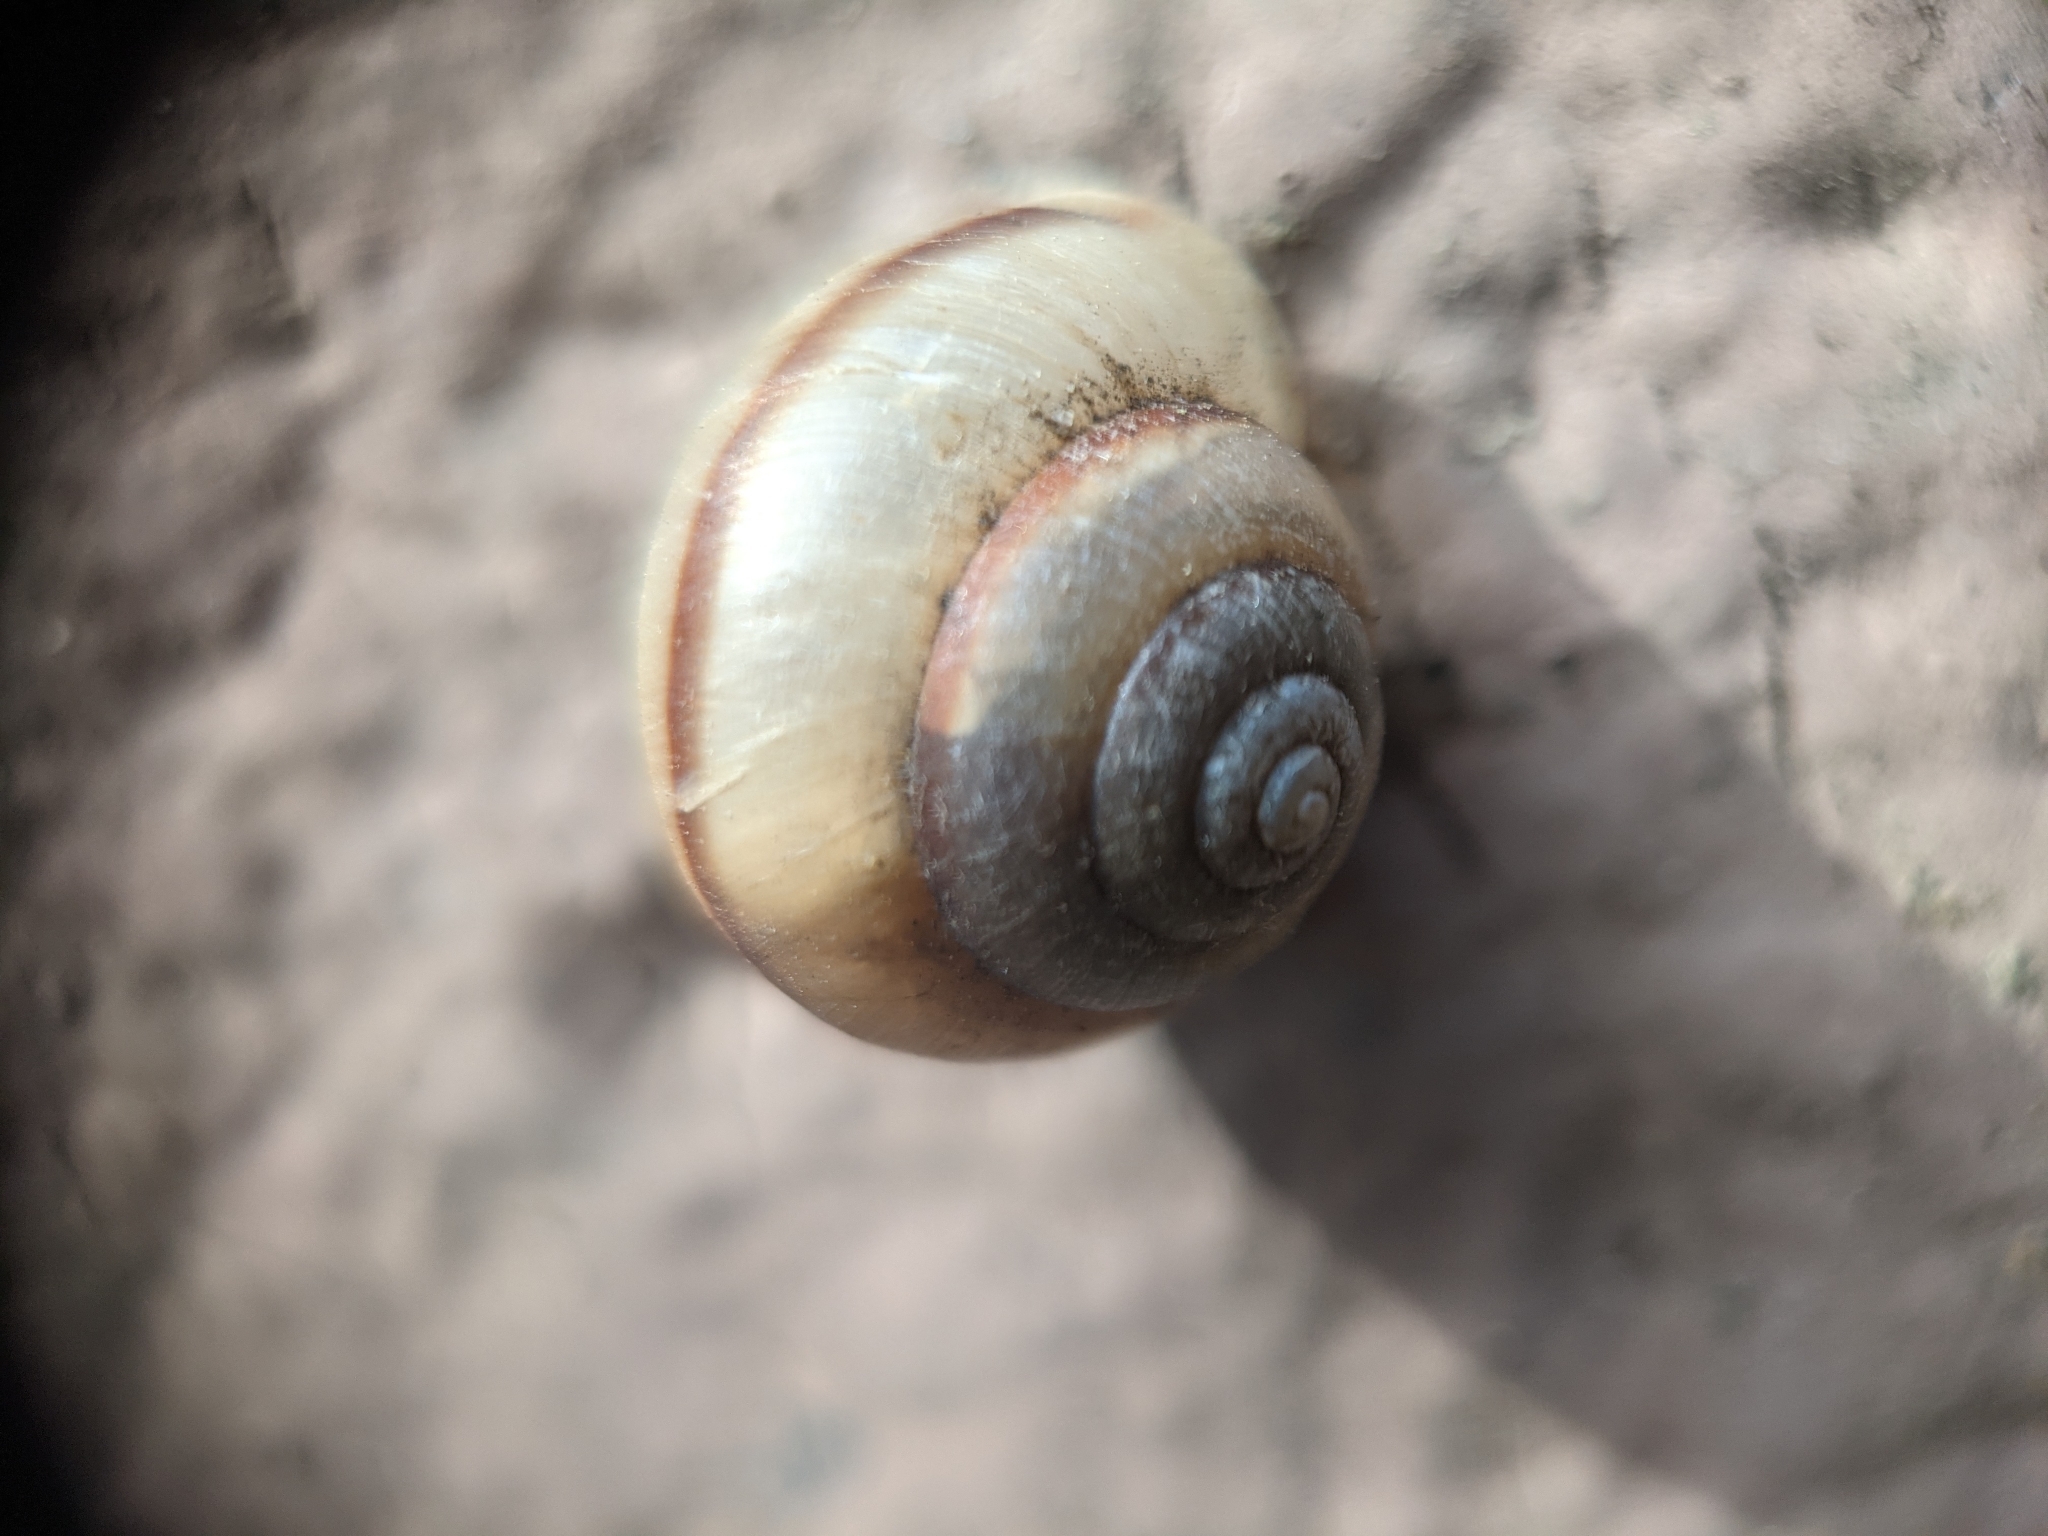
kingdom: Animalia
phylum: Mollusca
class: Gastropoda
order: Stylommatophora
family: Camaenidae
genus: Bradybaena
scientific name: Bradybaena similaris
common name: Asian trampsnail
